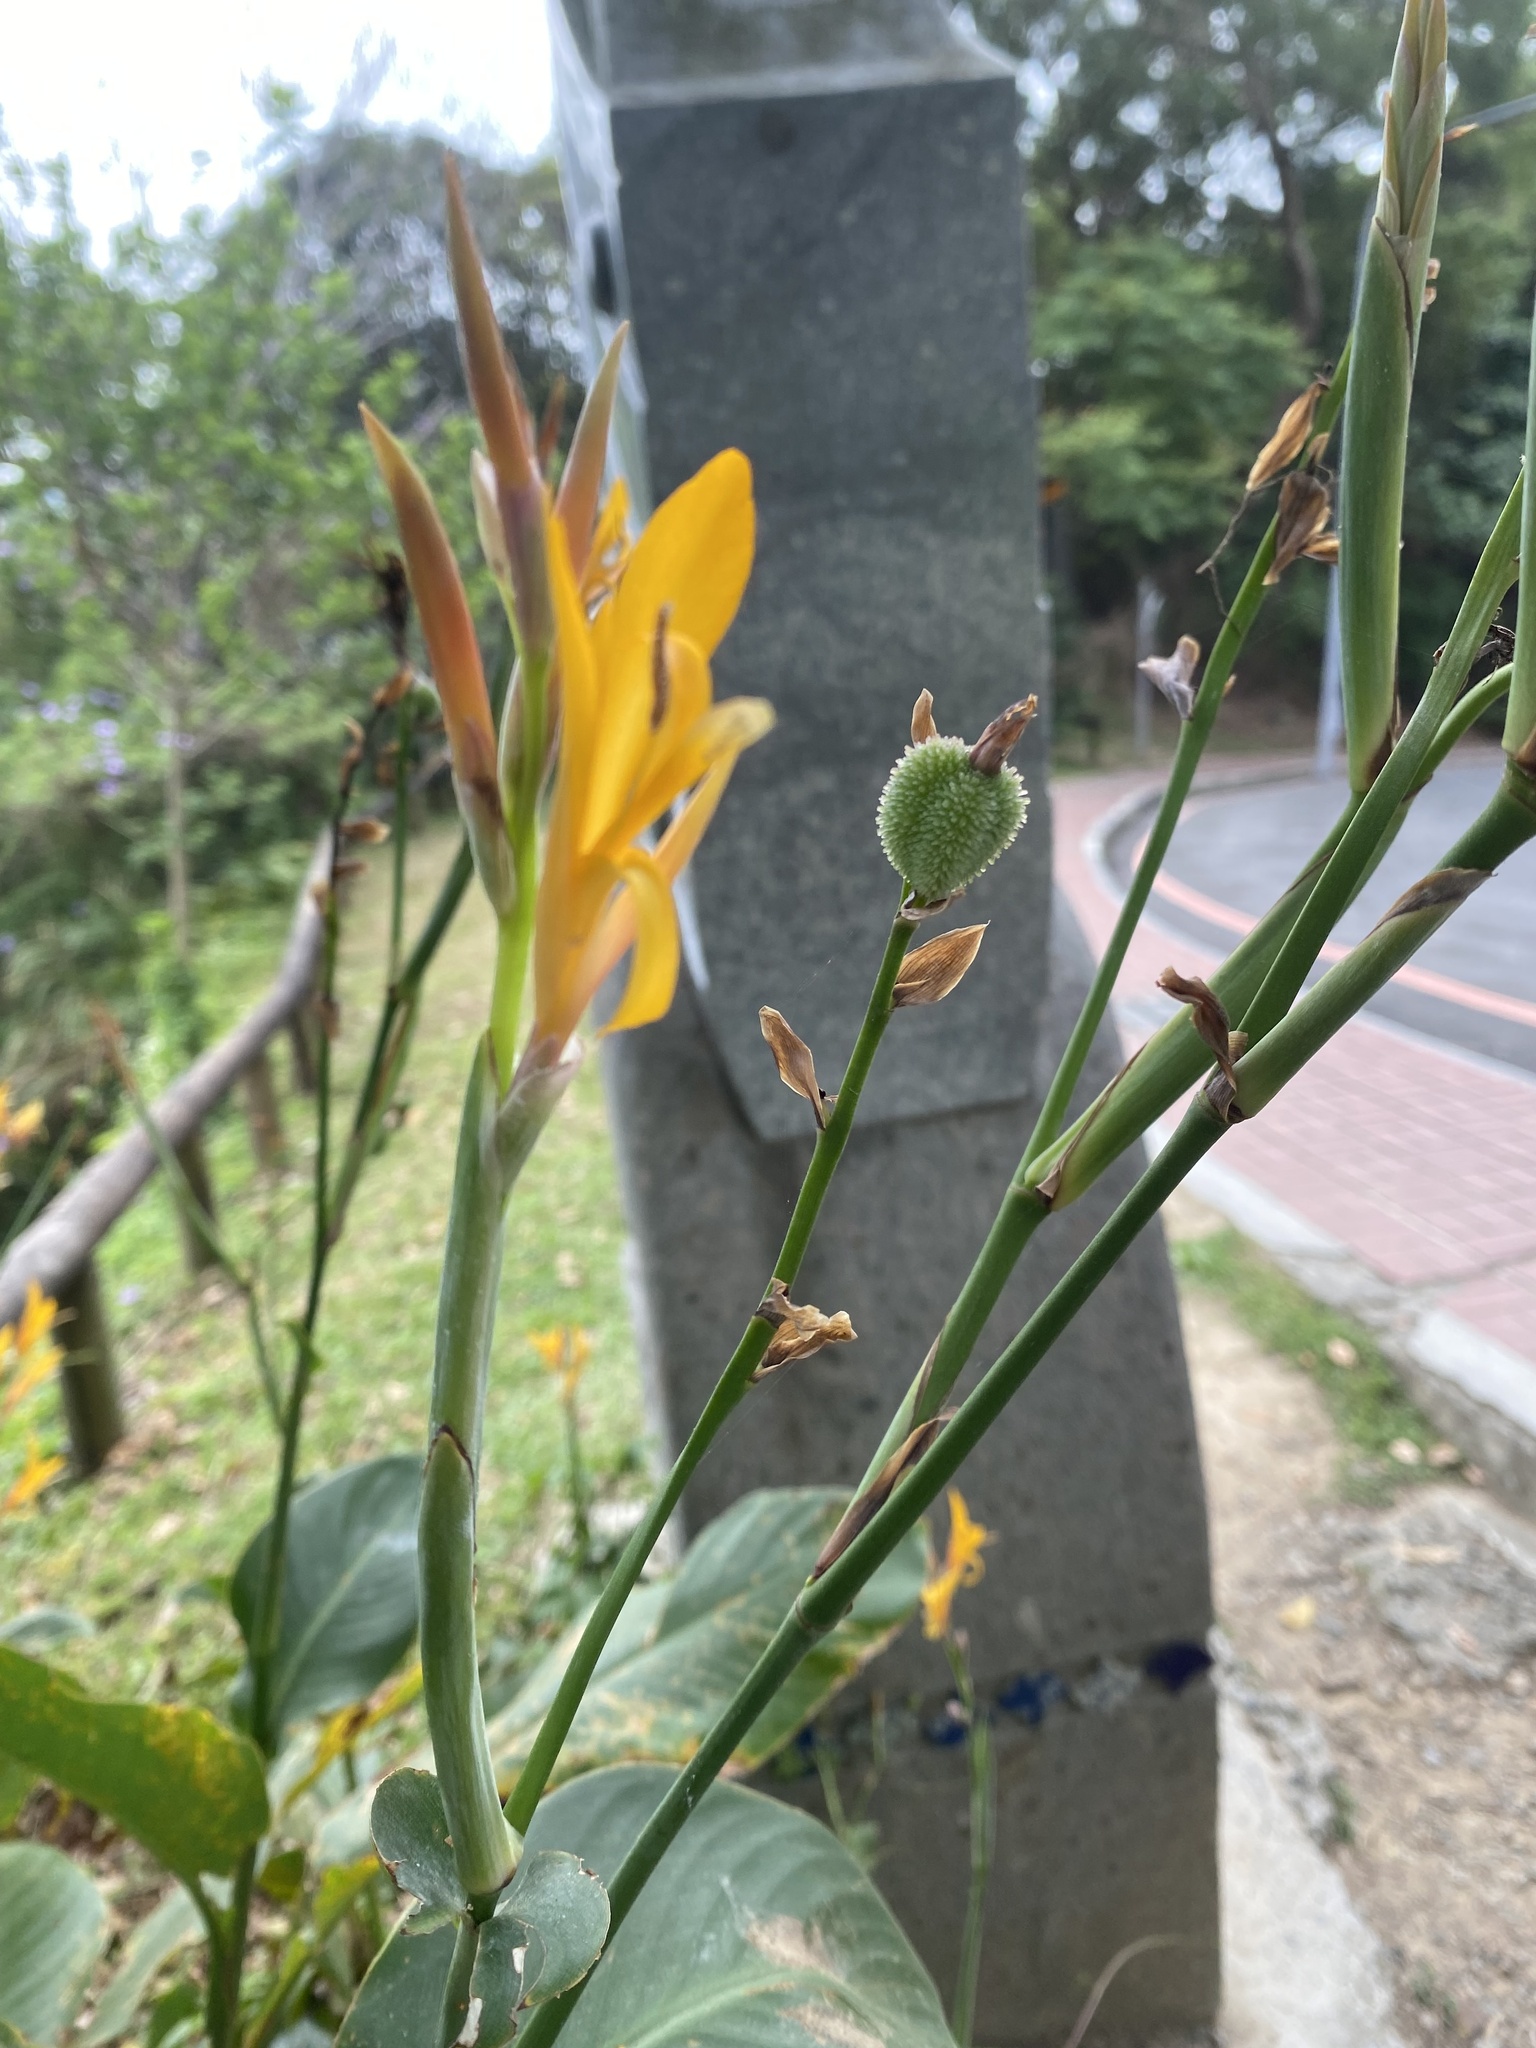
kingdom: Plantae
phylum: Tracheophyta
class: Liliopsida
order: Zingiberales
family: Cannaceae
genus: Canna
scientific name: Canna indica
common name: Indian shot
